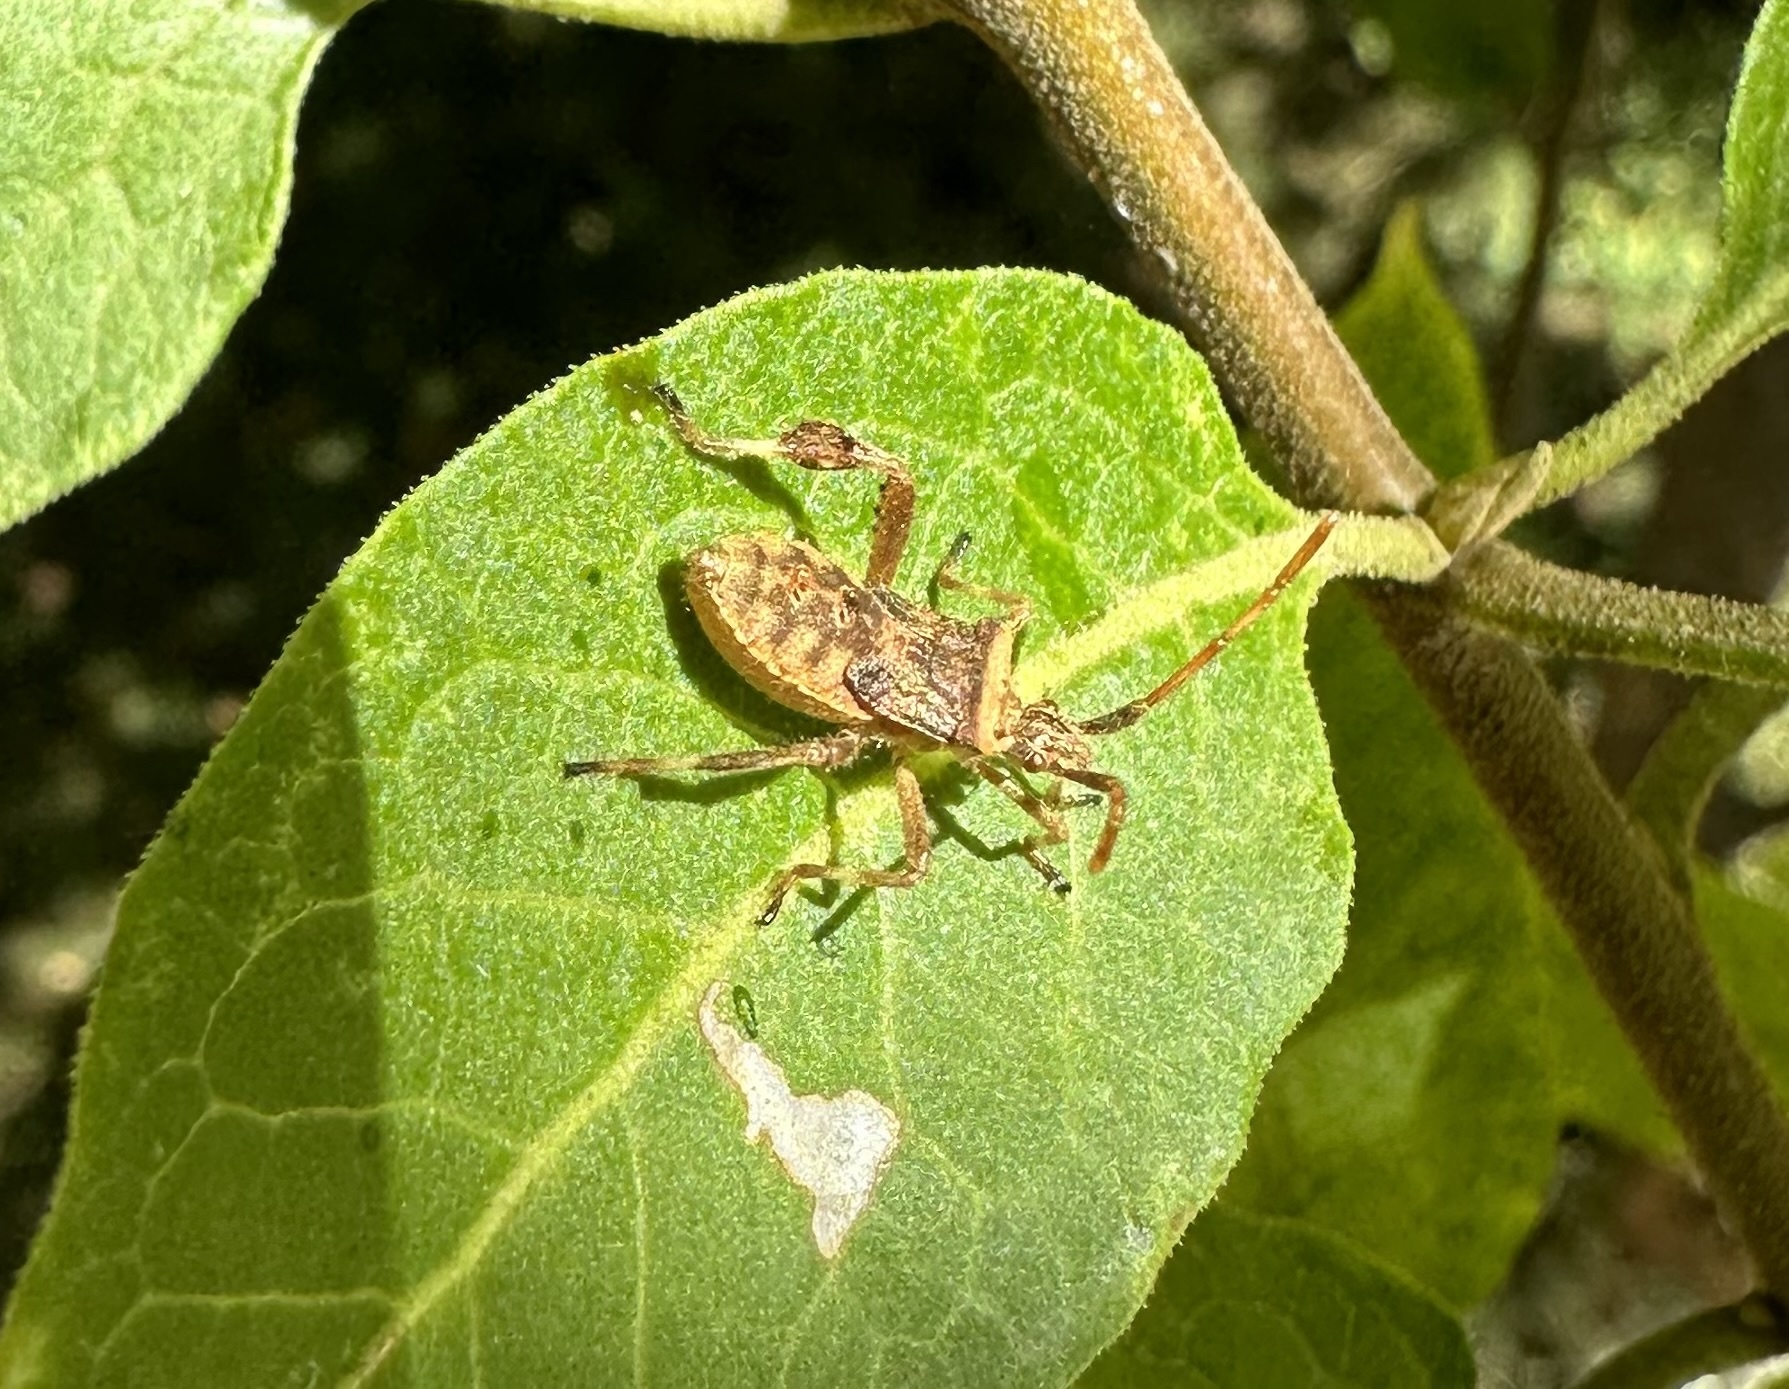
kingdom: Animalia
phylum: Arthropoda
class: Insecta
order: Hemiptera
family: Coreidae
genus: Leptoglossus
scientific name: Leptoglossus chilensis
